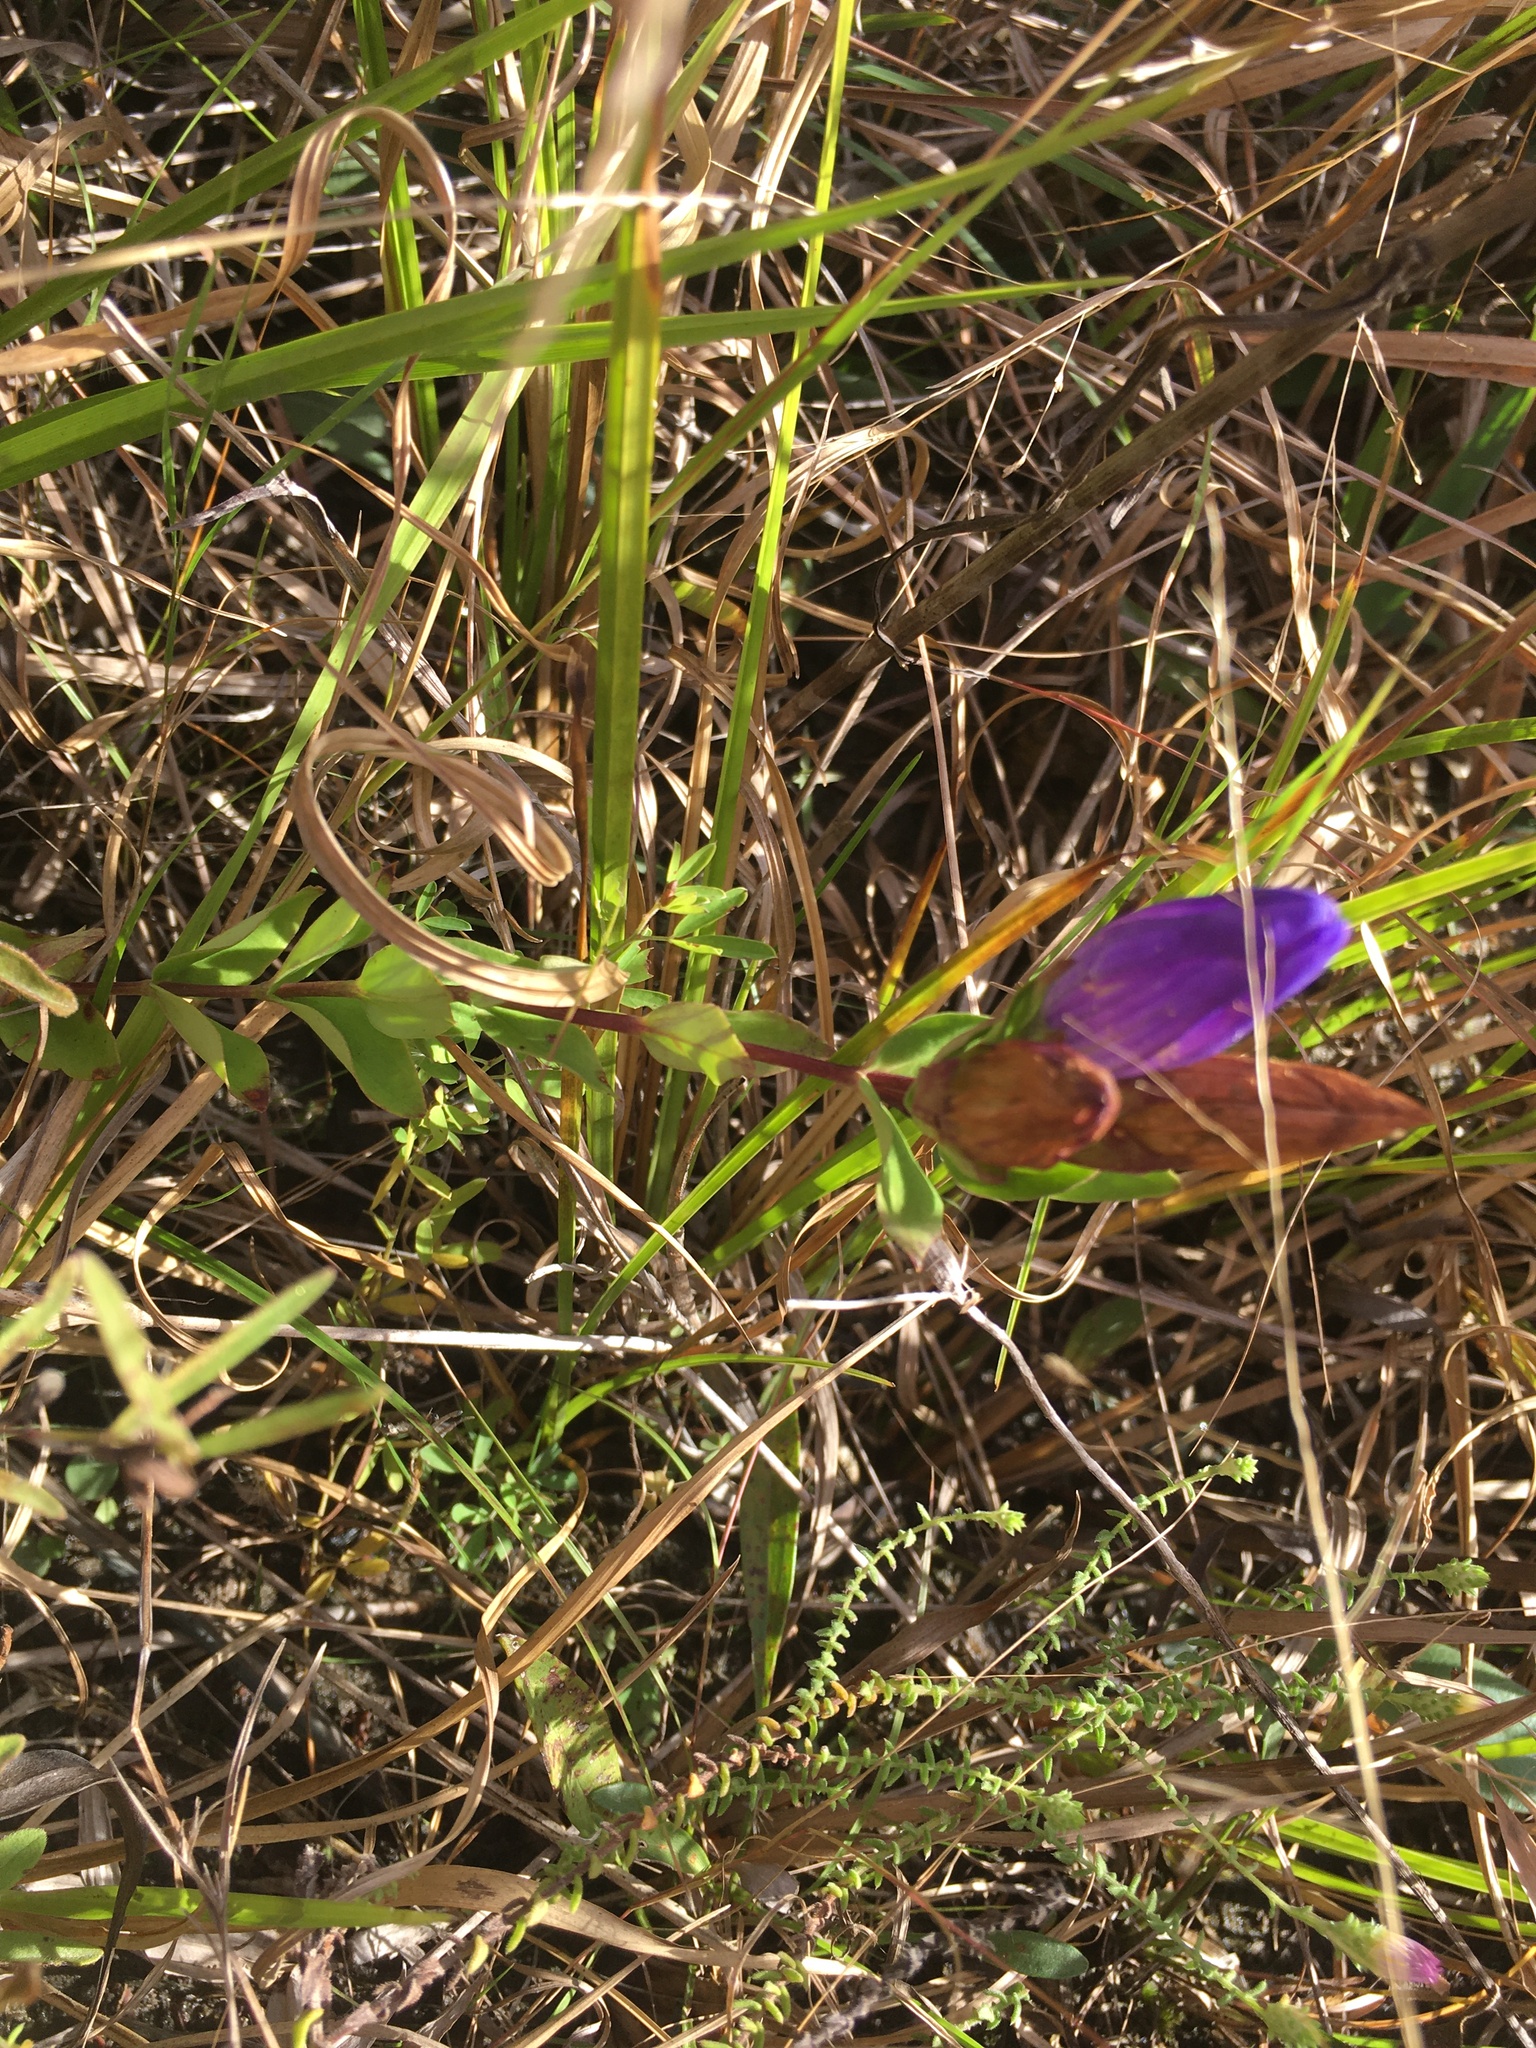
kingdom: Plantae
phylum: Tracheophyta
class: Magnoliopsida
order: Gentianales
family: Gentianaceae
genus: Gentiana
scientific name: Gentiana catesbaei
